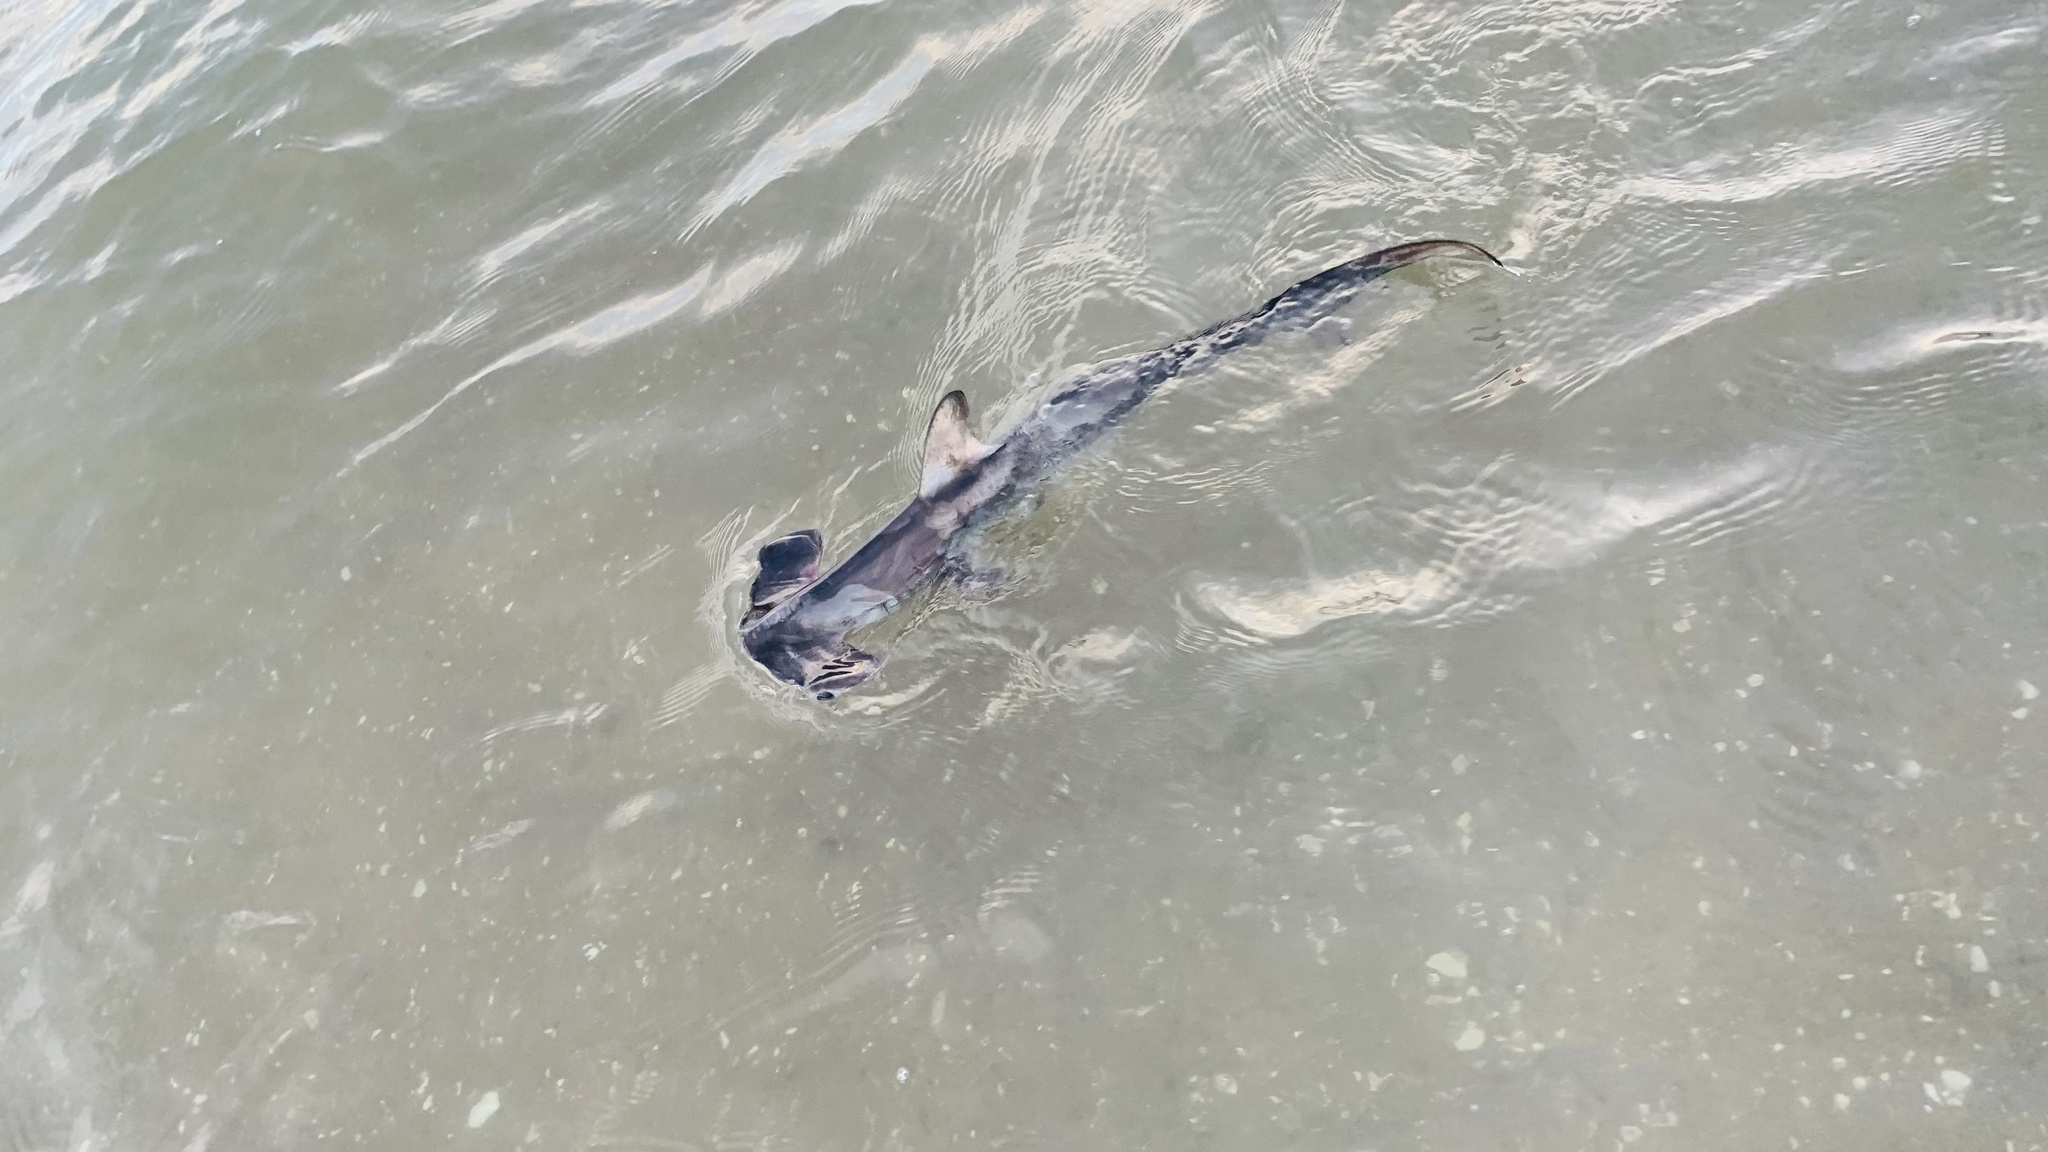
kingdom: Animalia
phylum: Chordata
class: Elasmobranchii
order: Carcharhiniformes
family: Sphyrnidae
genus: Sphyrna
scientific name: Sphyrna zygaena
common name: Smooth hammerhead
